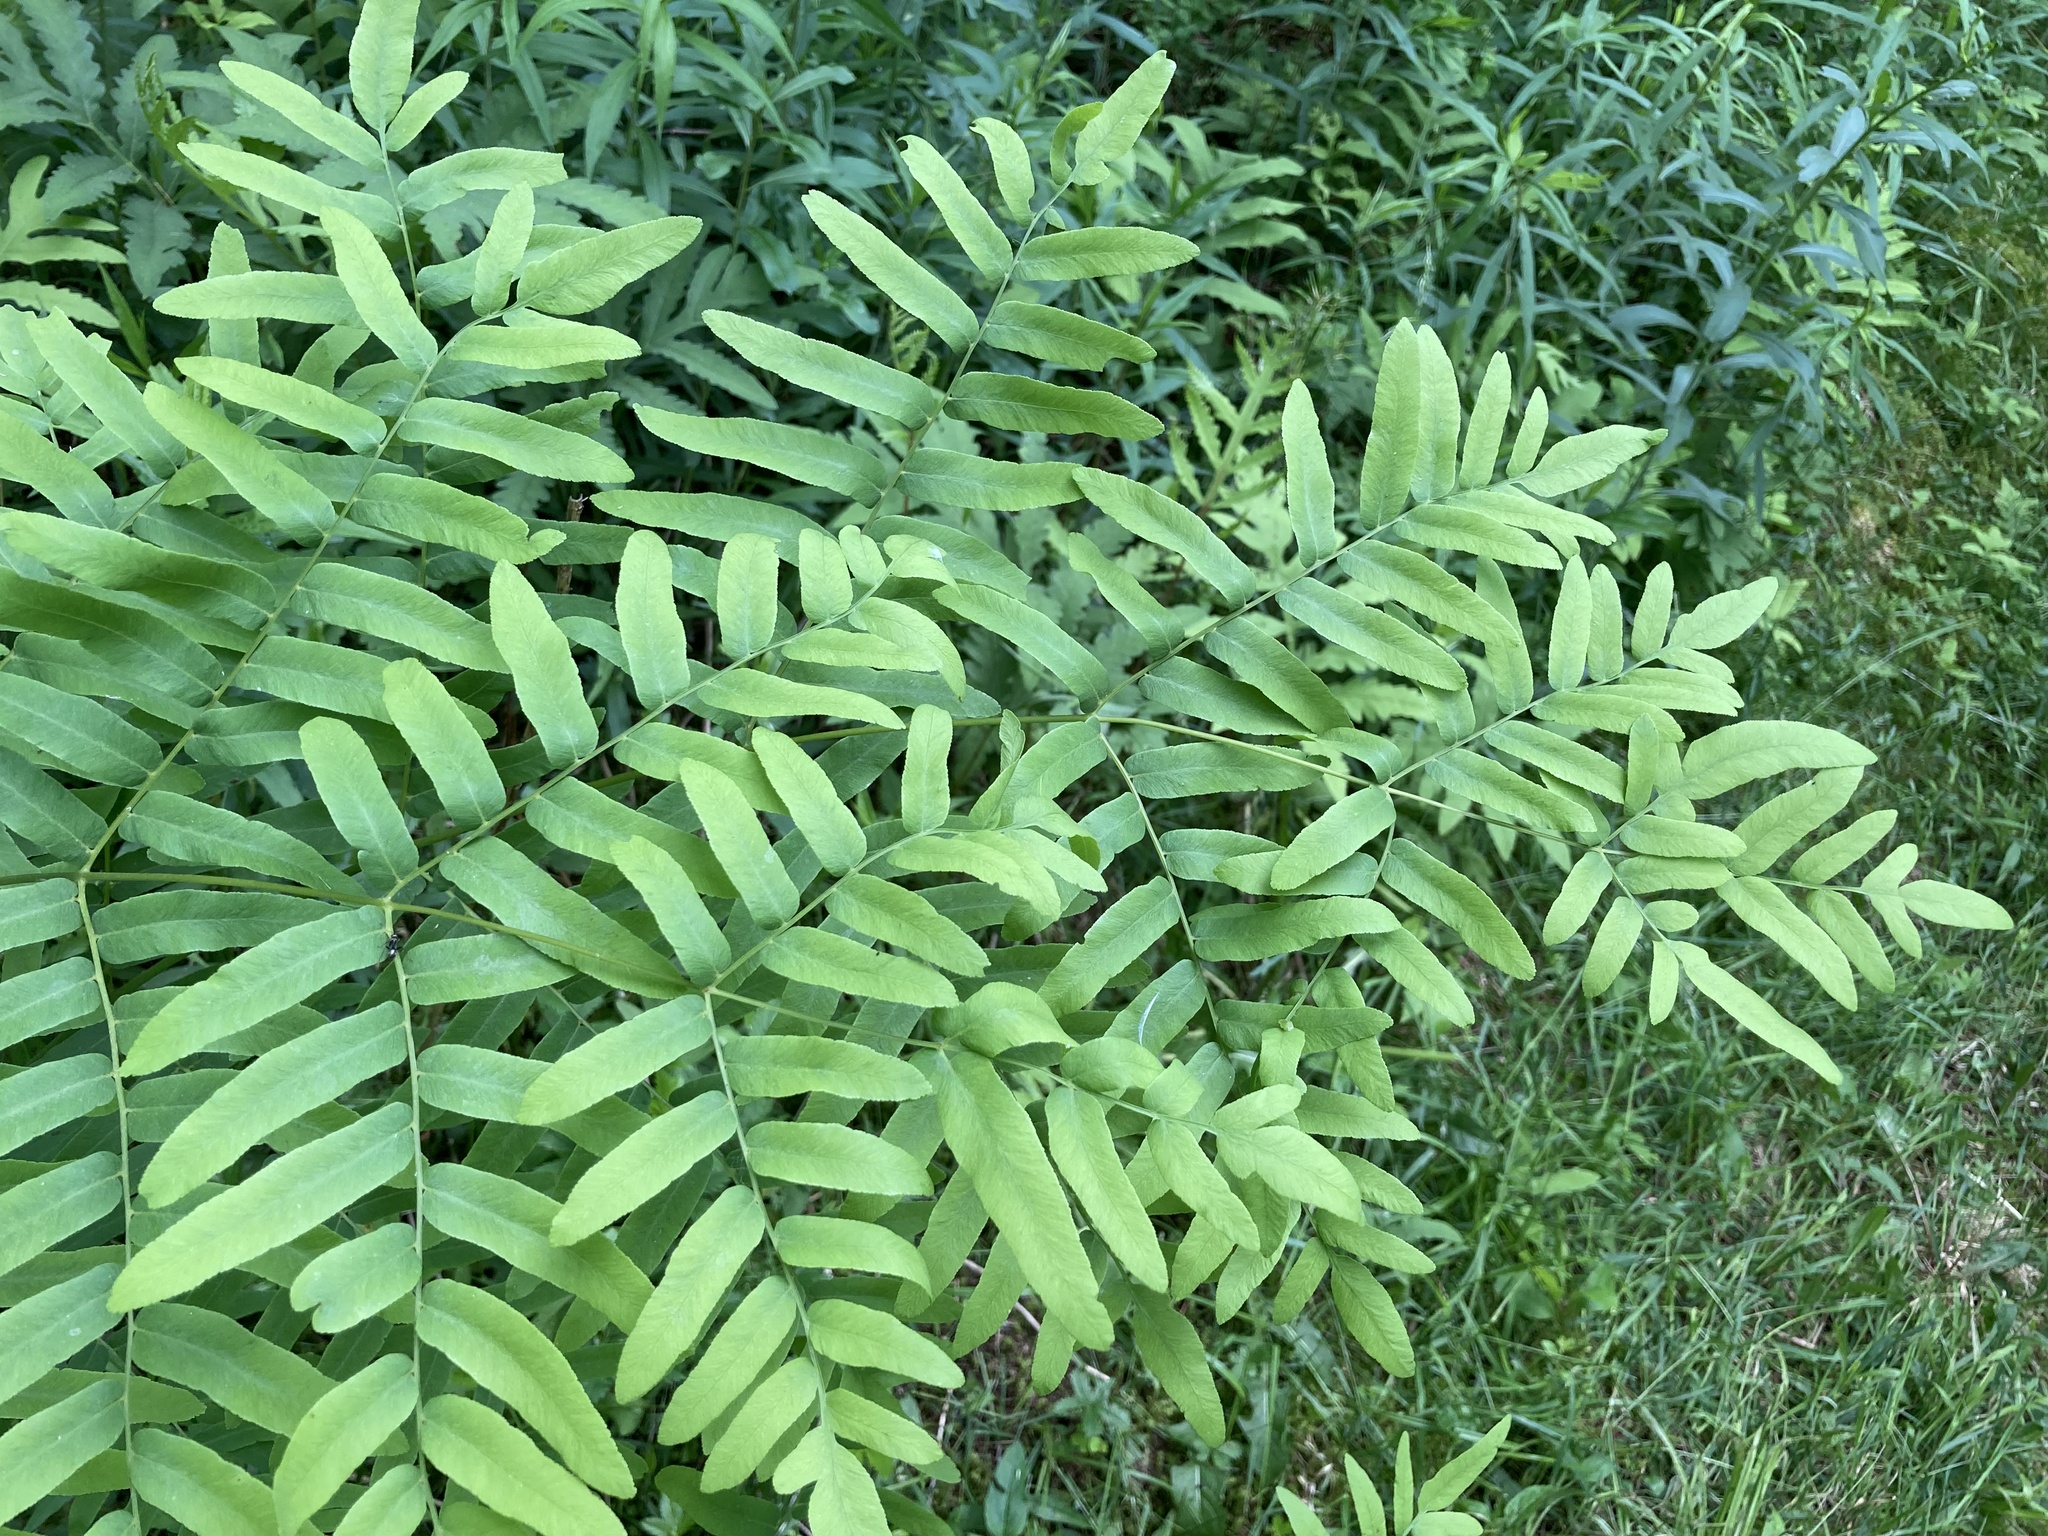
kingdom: Plantae
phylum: Tracheophyta
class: Polypodiopsida
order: Osmundales
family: Osmundaceae
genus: Osmunda
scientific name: Osmunda spectabilis
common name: American royal fern
